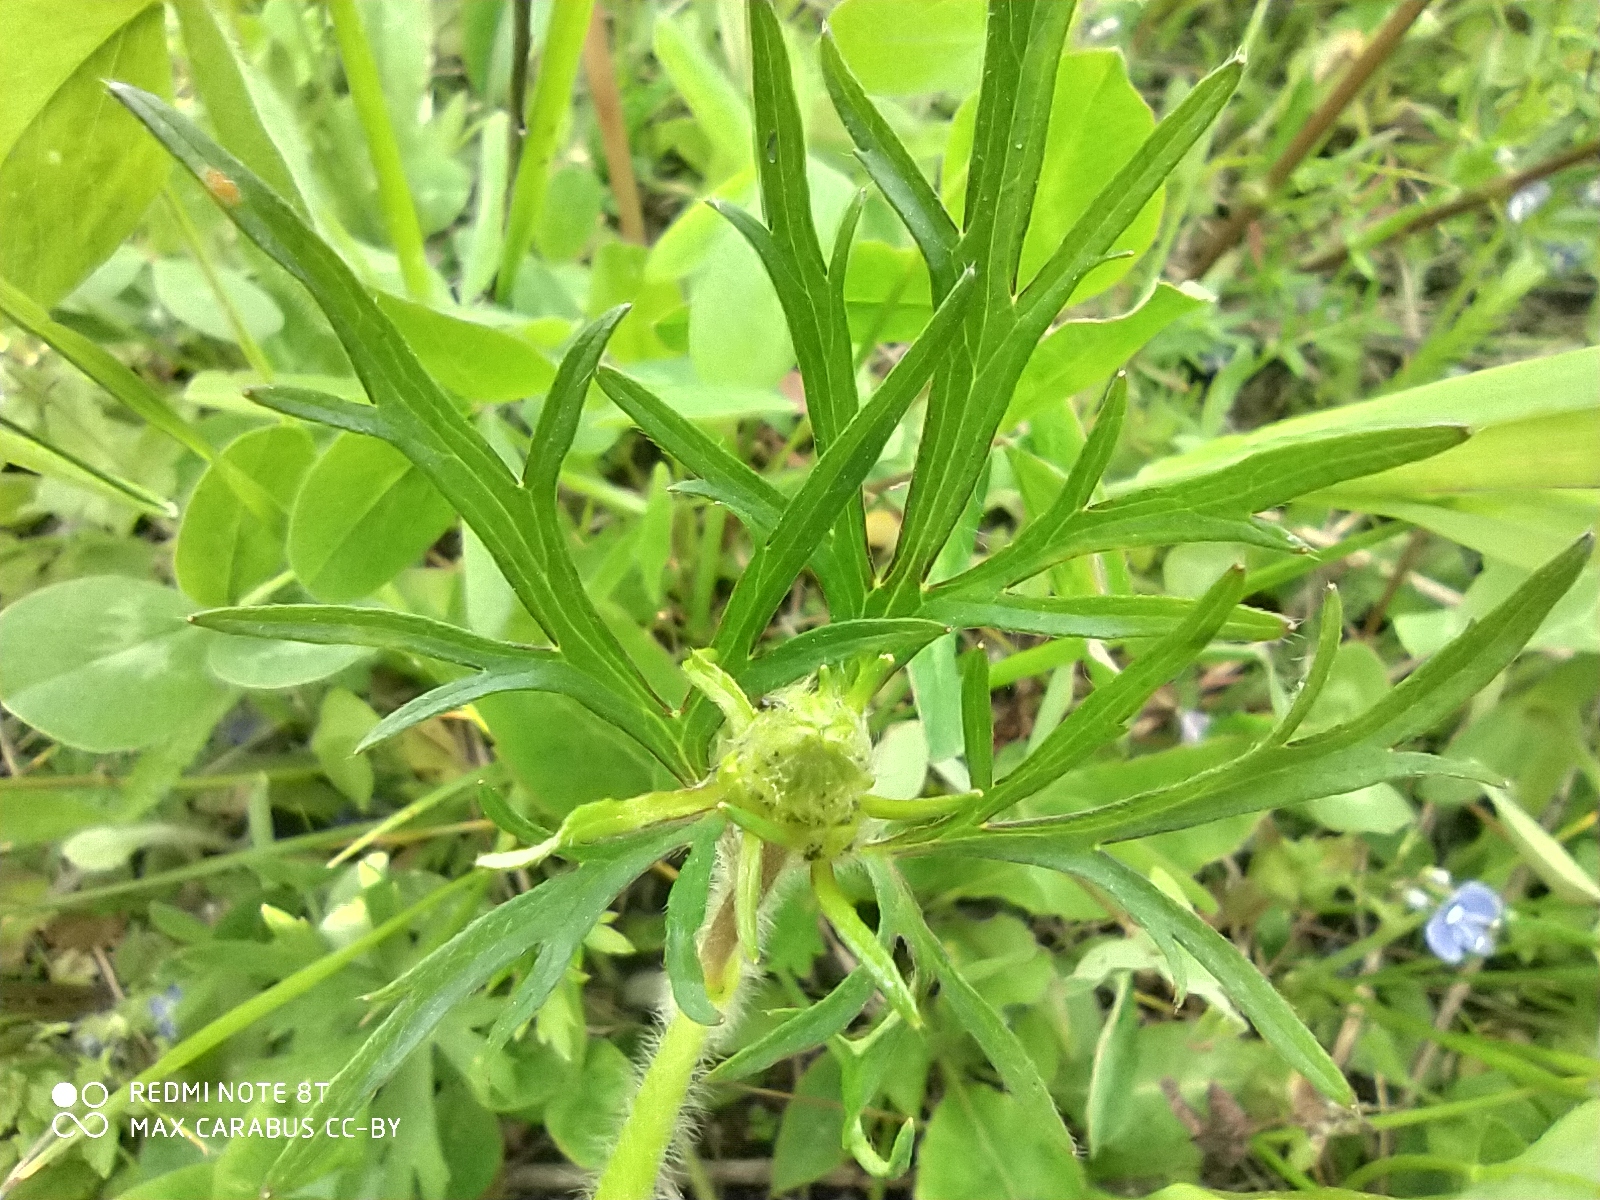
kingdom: Plantae
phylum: Tracheophyta
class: Magnoliopsida
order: Ranunculales
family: Ranunculaceae
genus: Ranunculus
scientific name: Ranunculus polyanthemos
